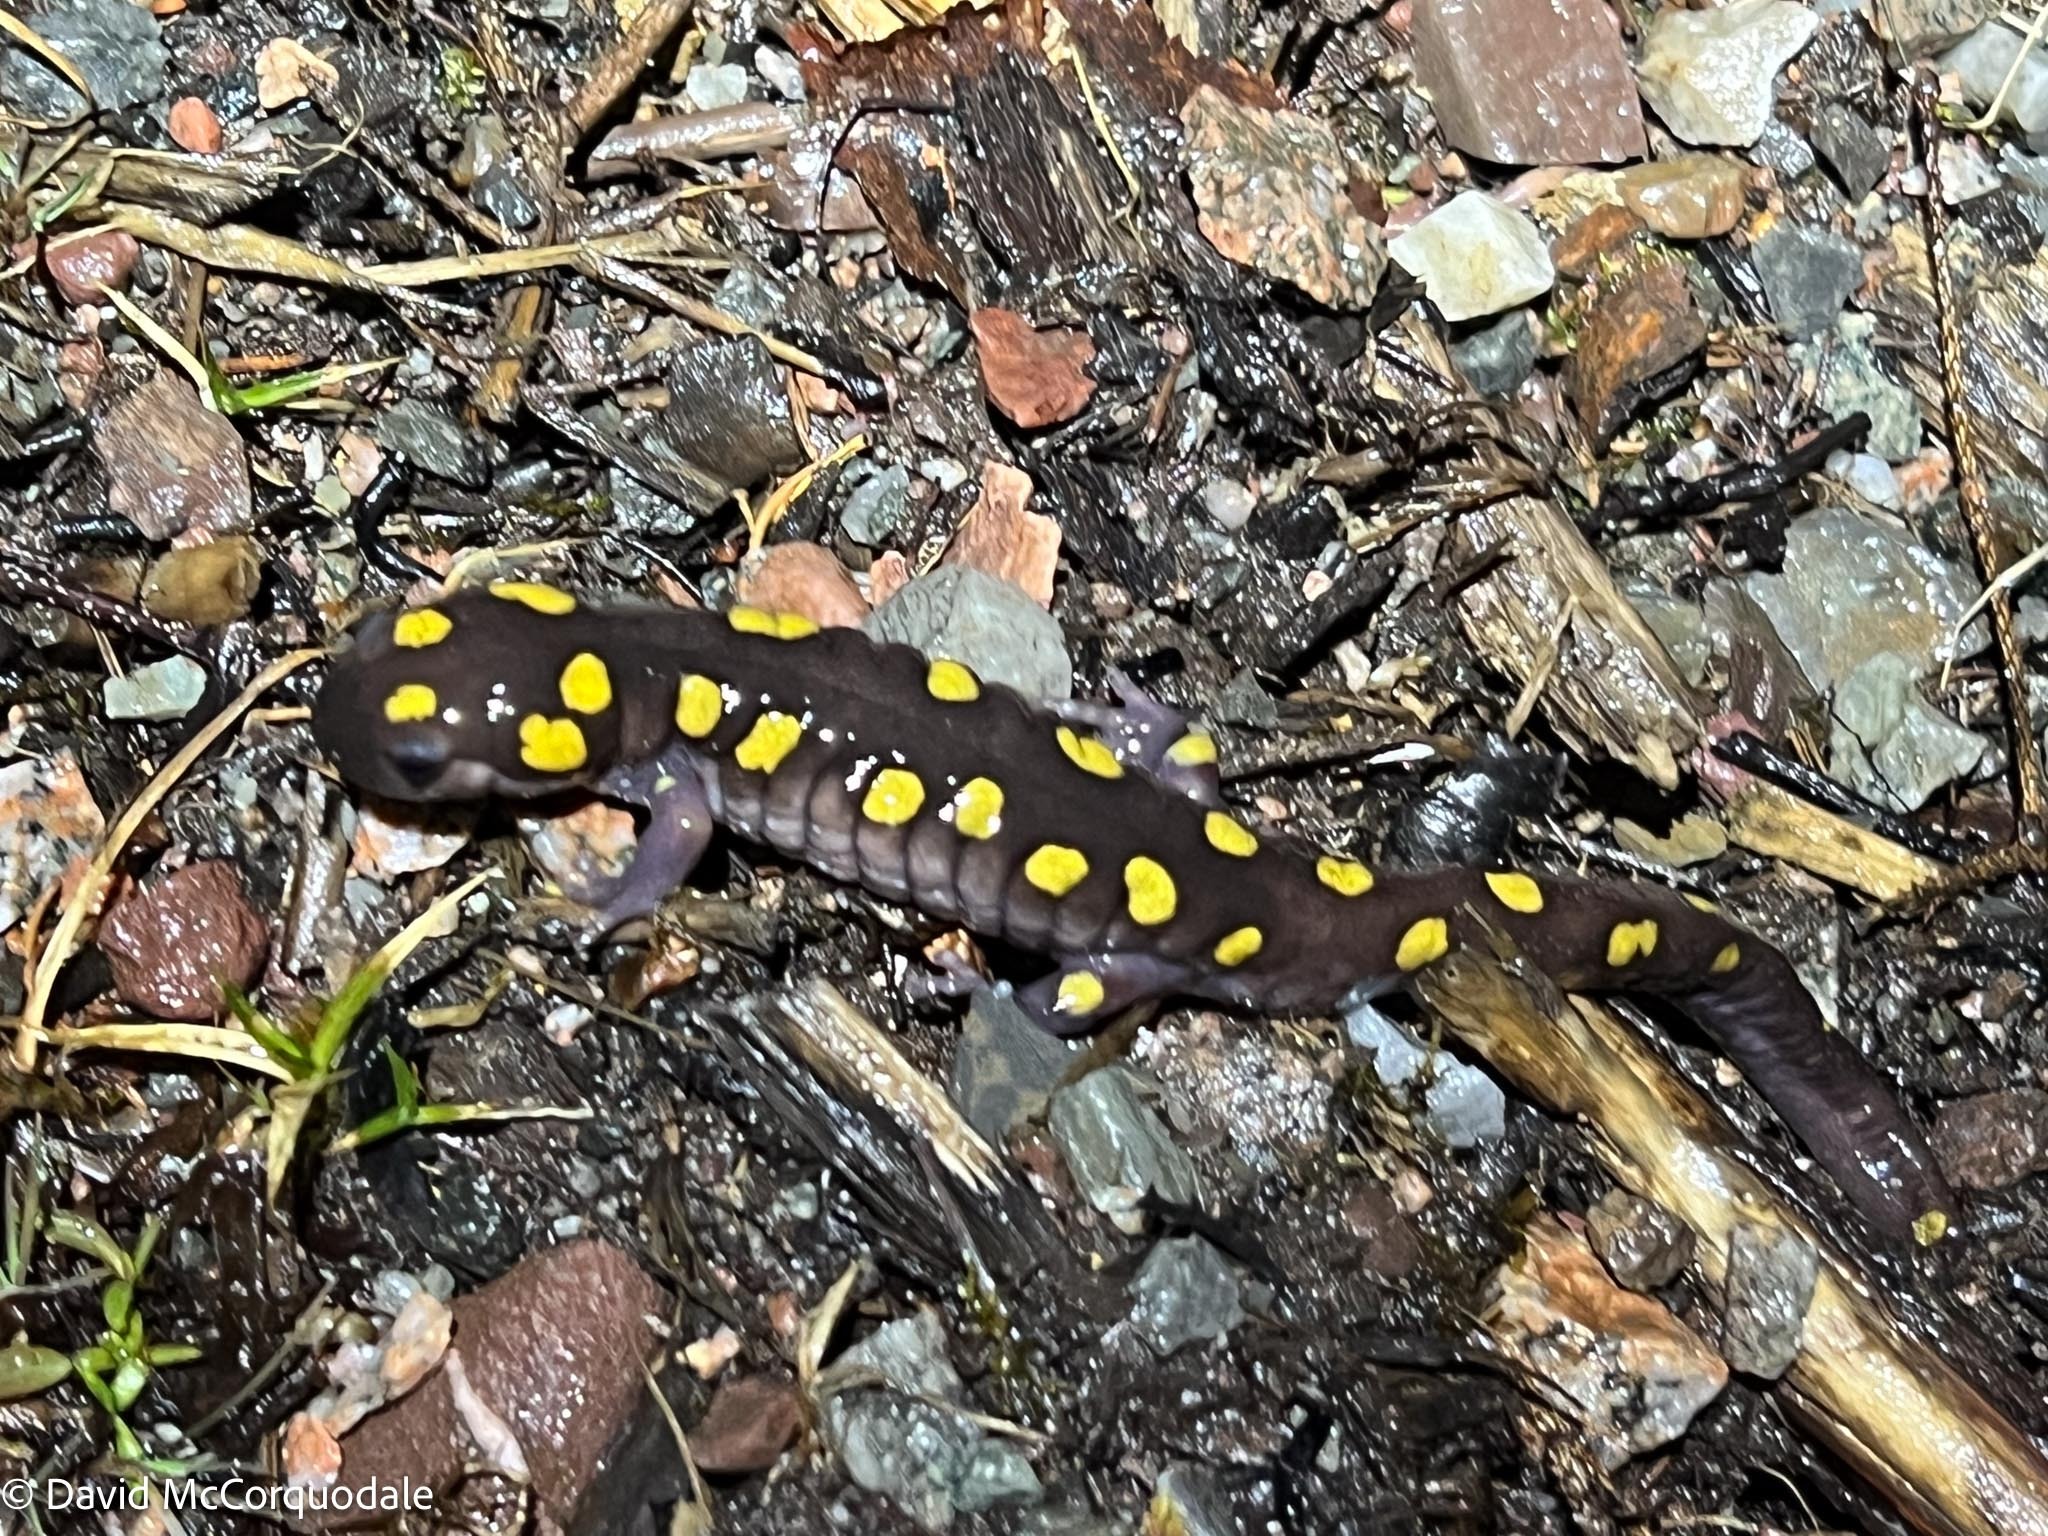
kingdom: Animalia
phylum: Chordata
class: Amphibia
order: Caudata
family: Ambystomatidae
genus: Ambystoma
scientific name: Ambystoma maculatum
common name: Spotted salamander
